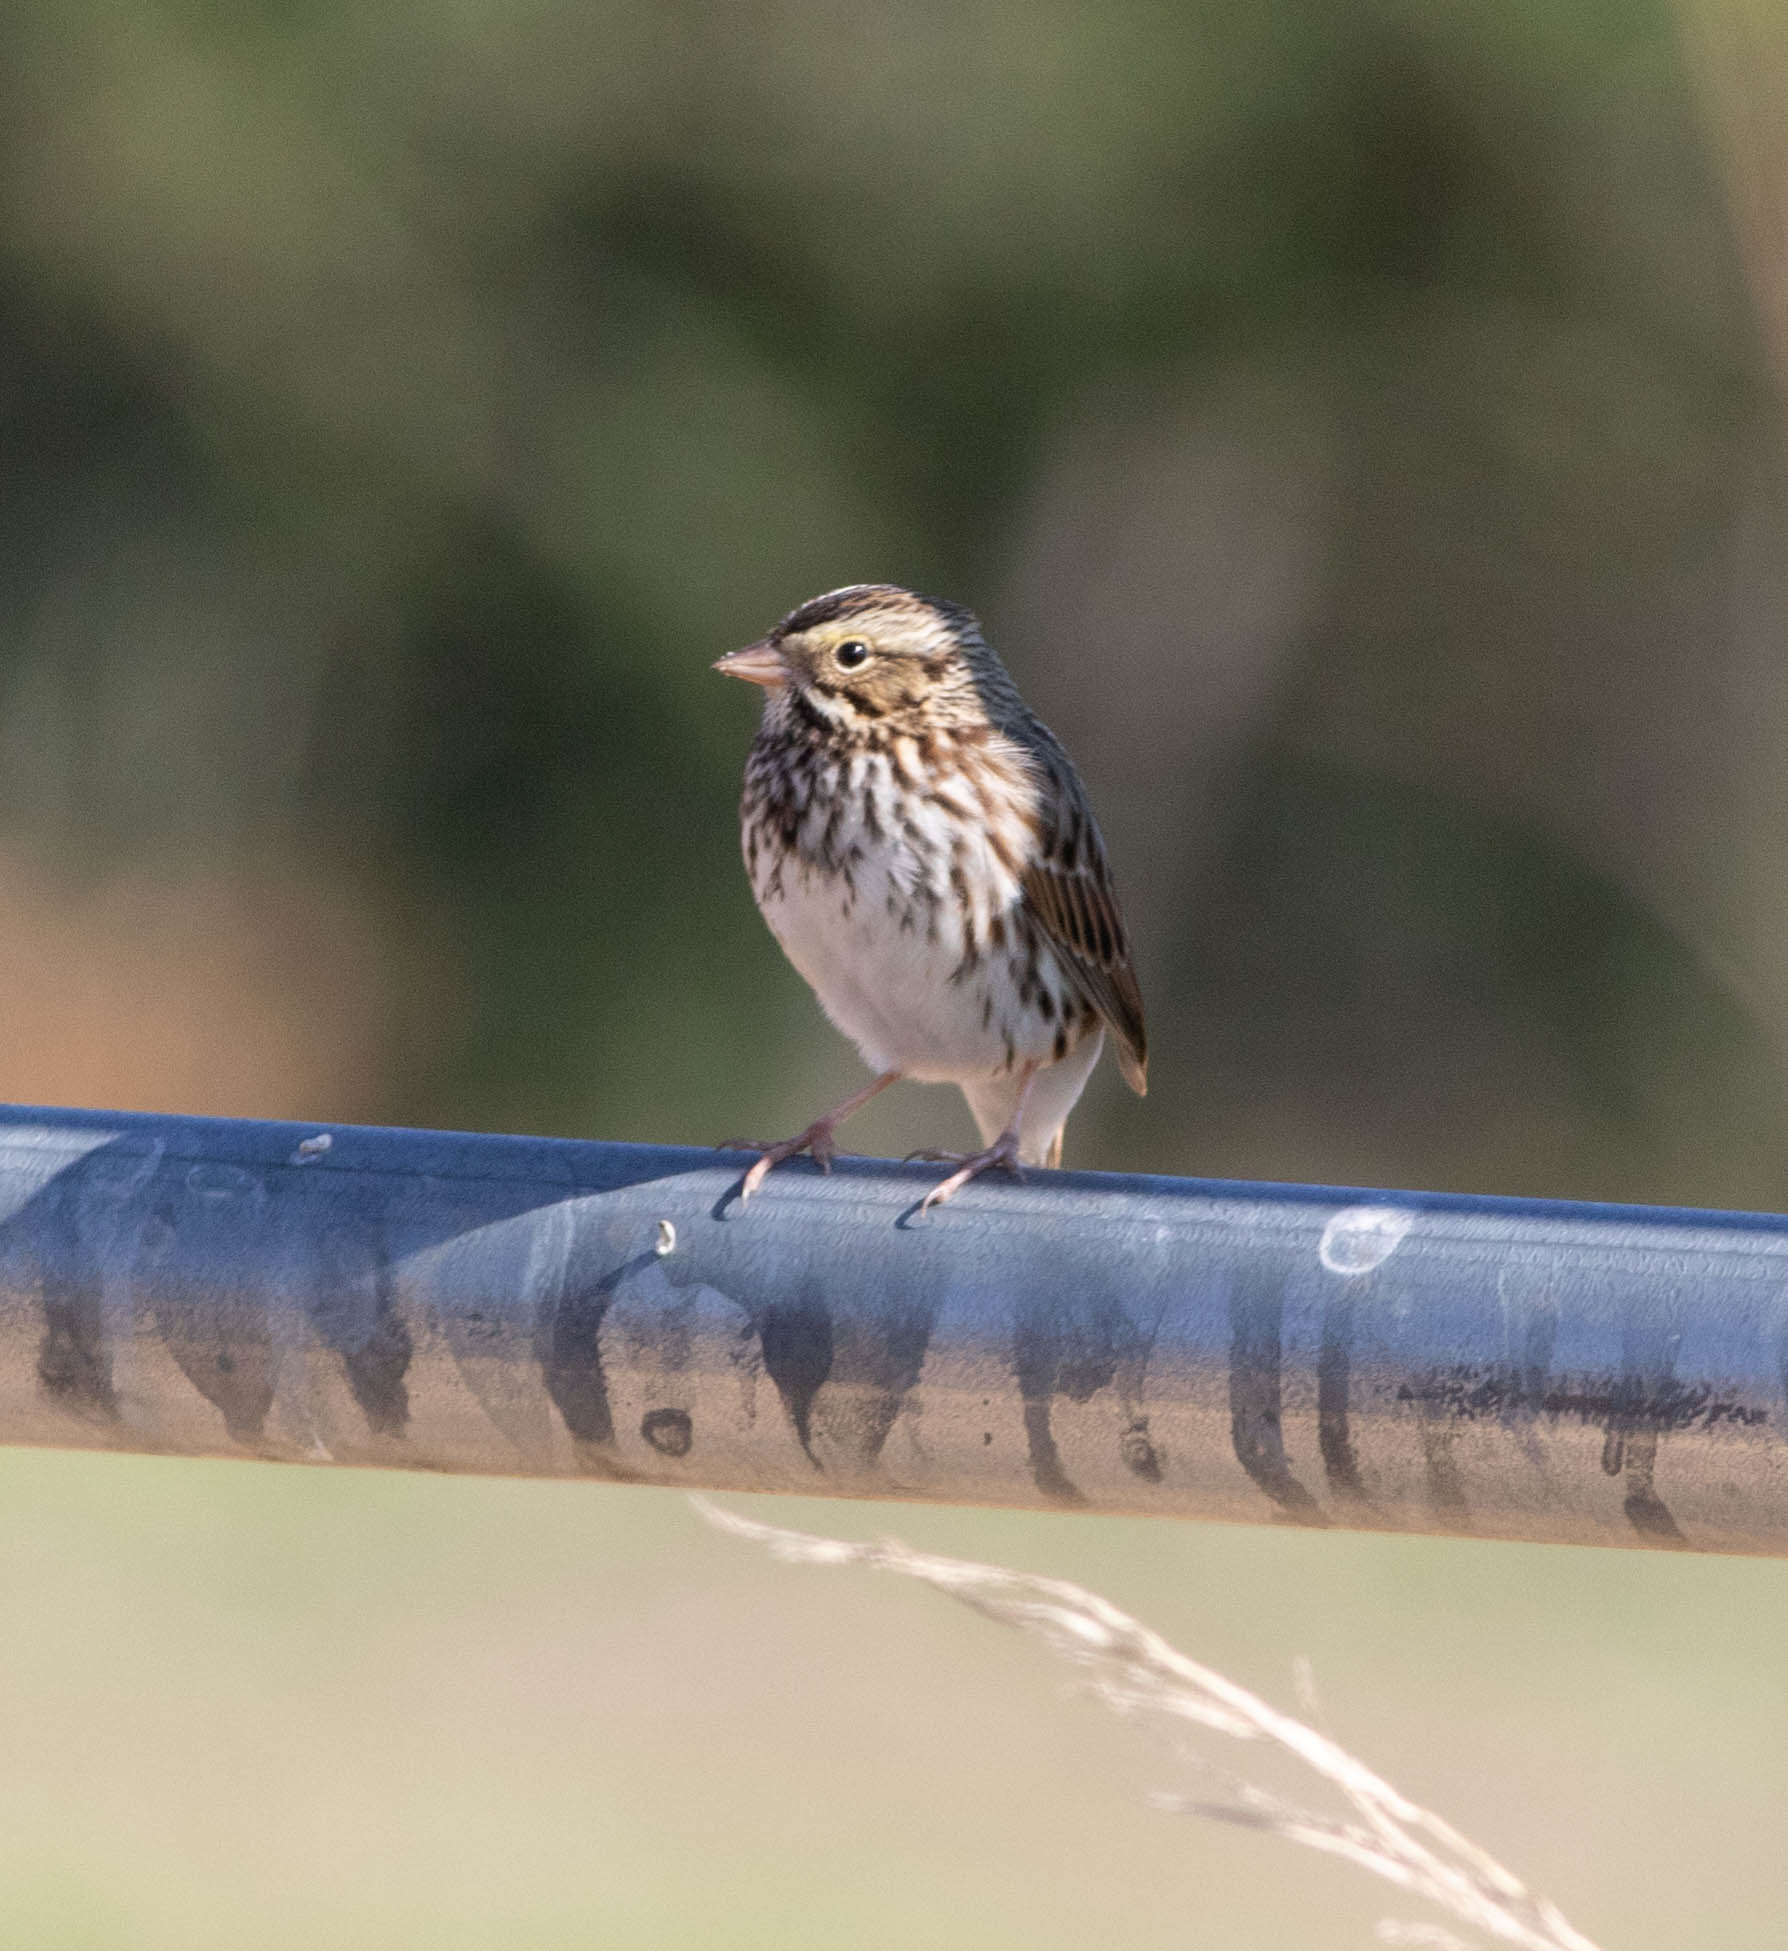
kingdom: Animalia
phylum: Chordata
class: Aves
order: Passeriformes
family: Passerellidae
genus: Passerculus
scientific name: Passerculus sandwichensis
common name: Savannah sparrow
